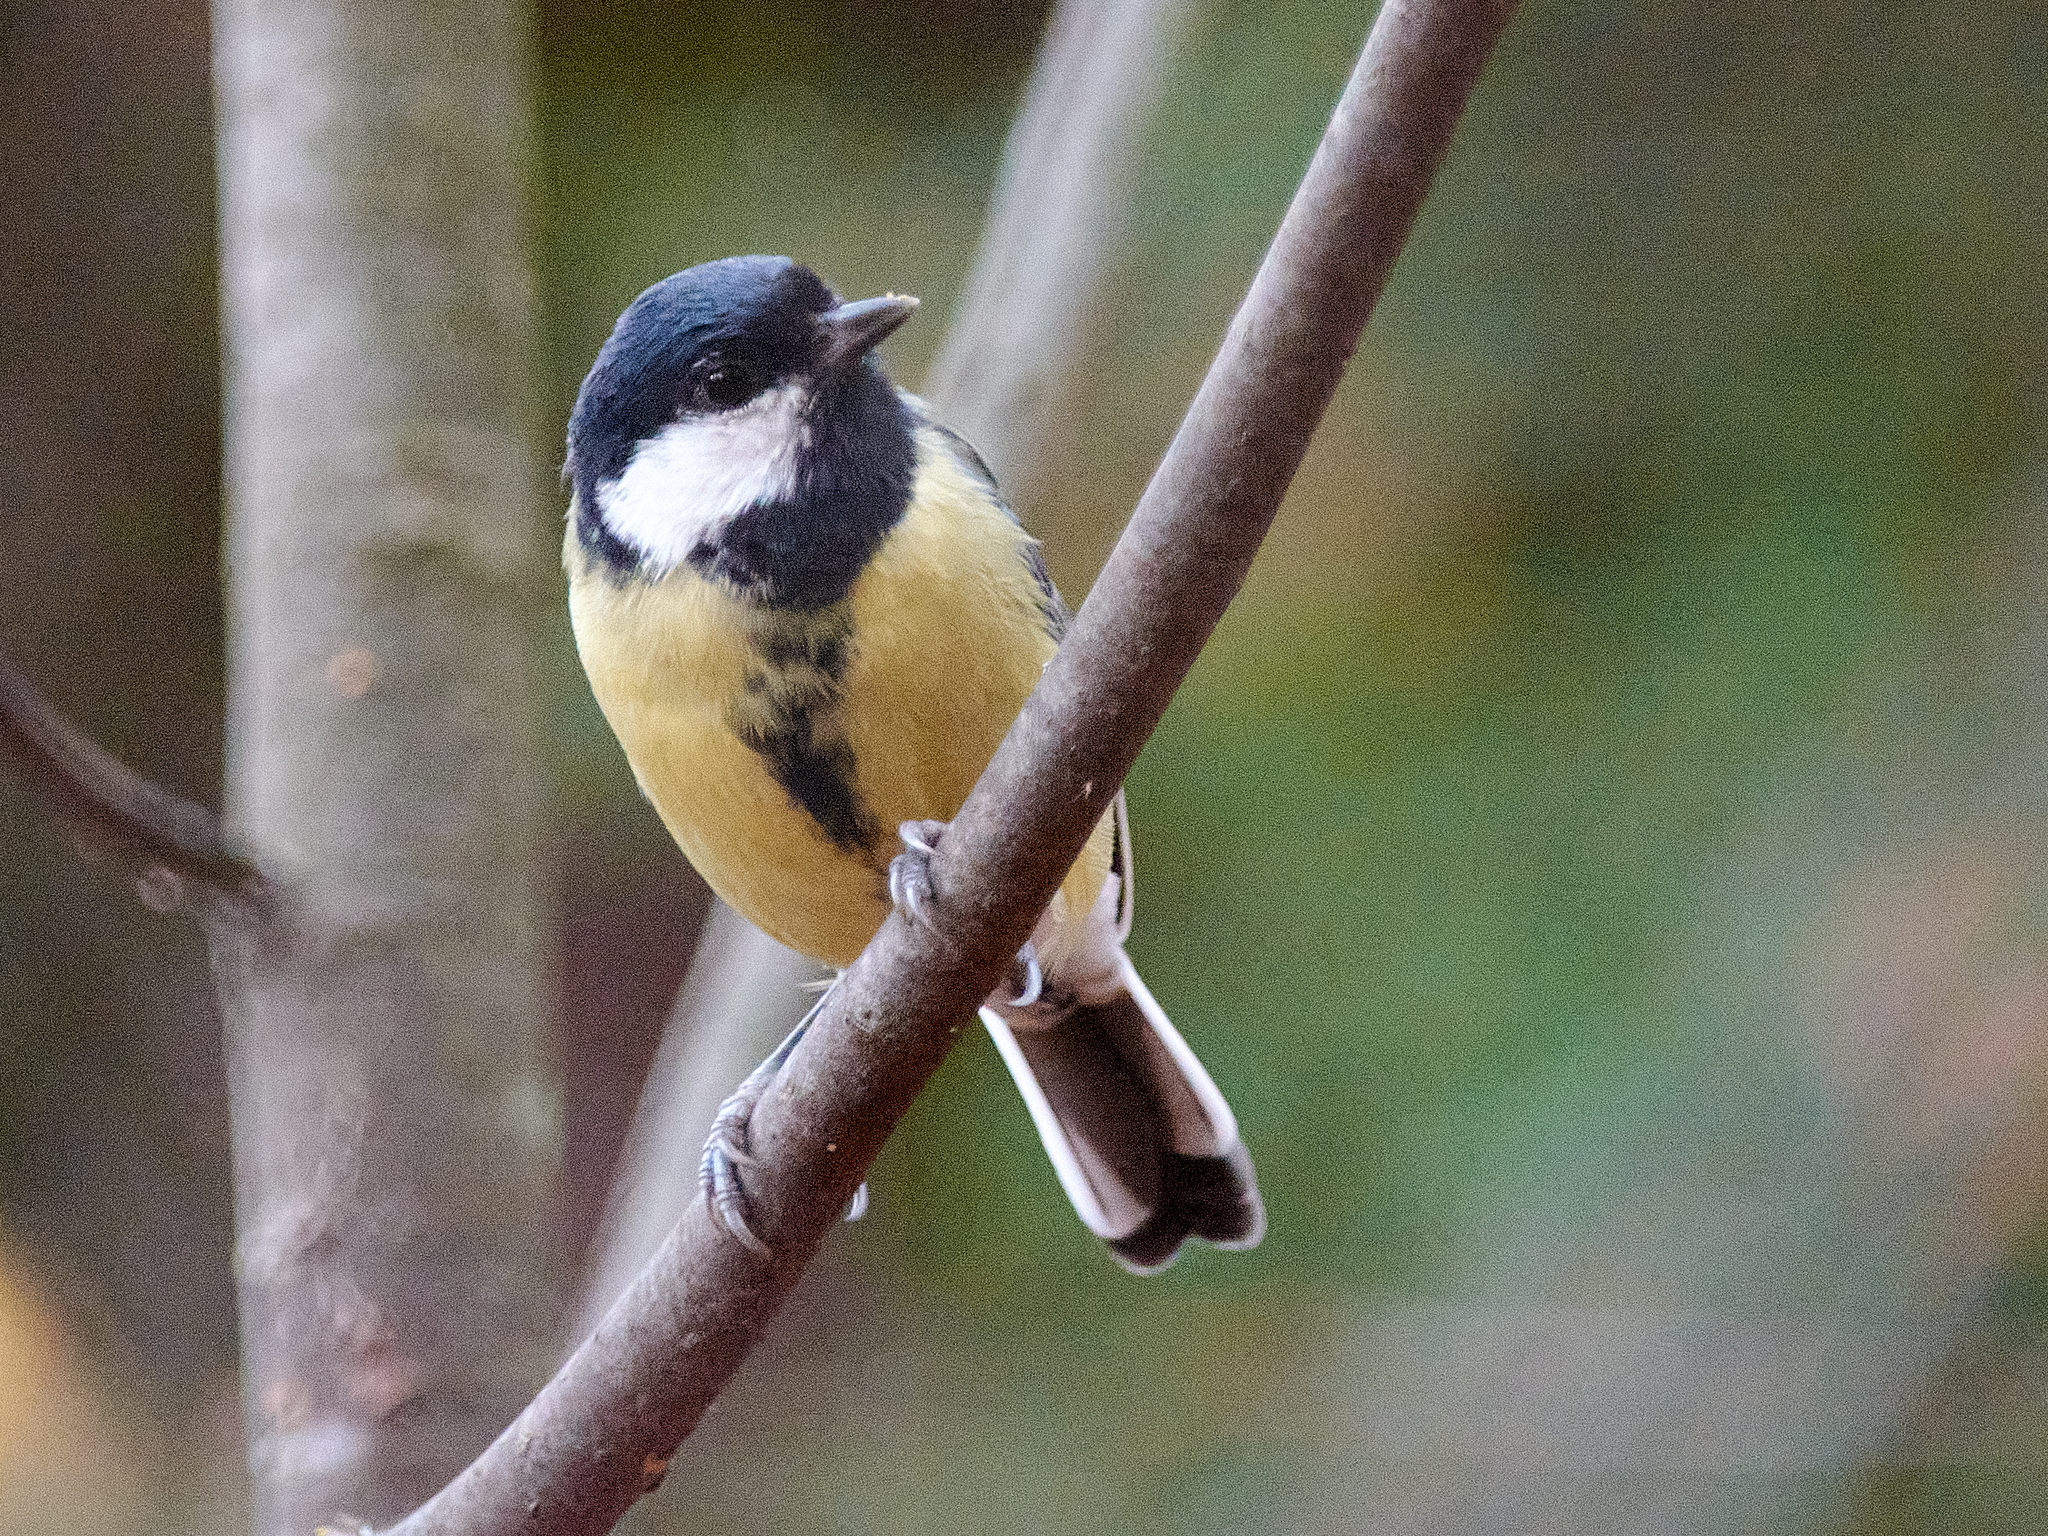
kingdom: Animalia
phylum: Chordata
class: Aves
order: Passeriformes
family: Paridae
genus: Parus
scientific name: Parus major
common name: Great tit
